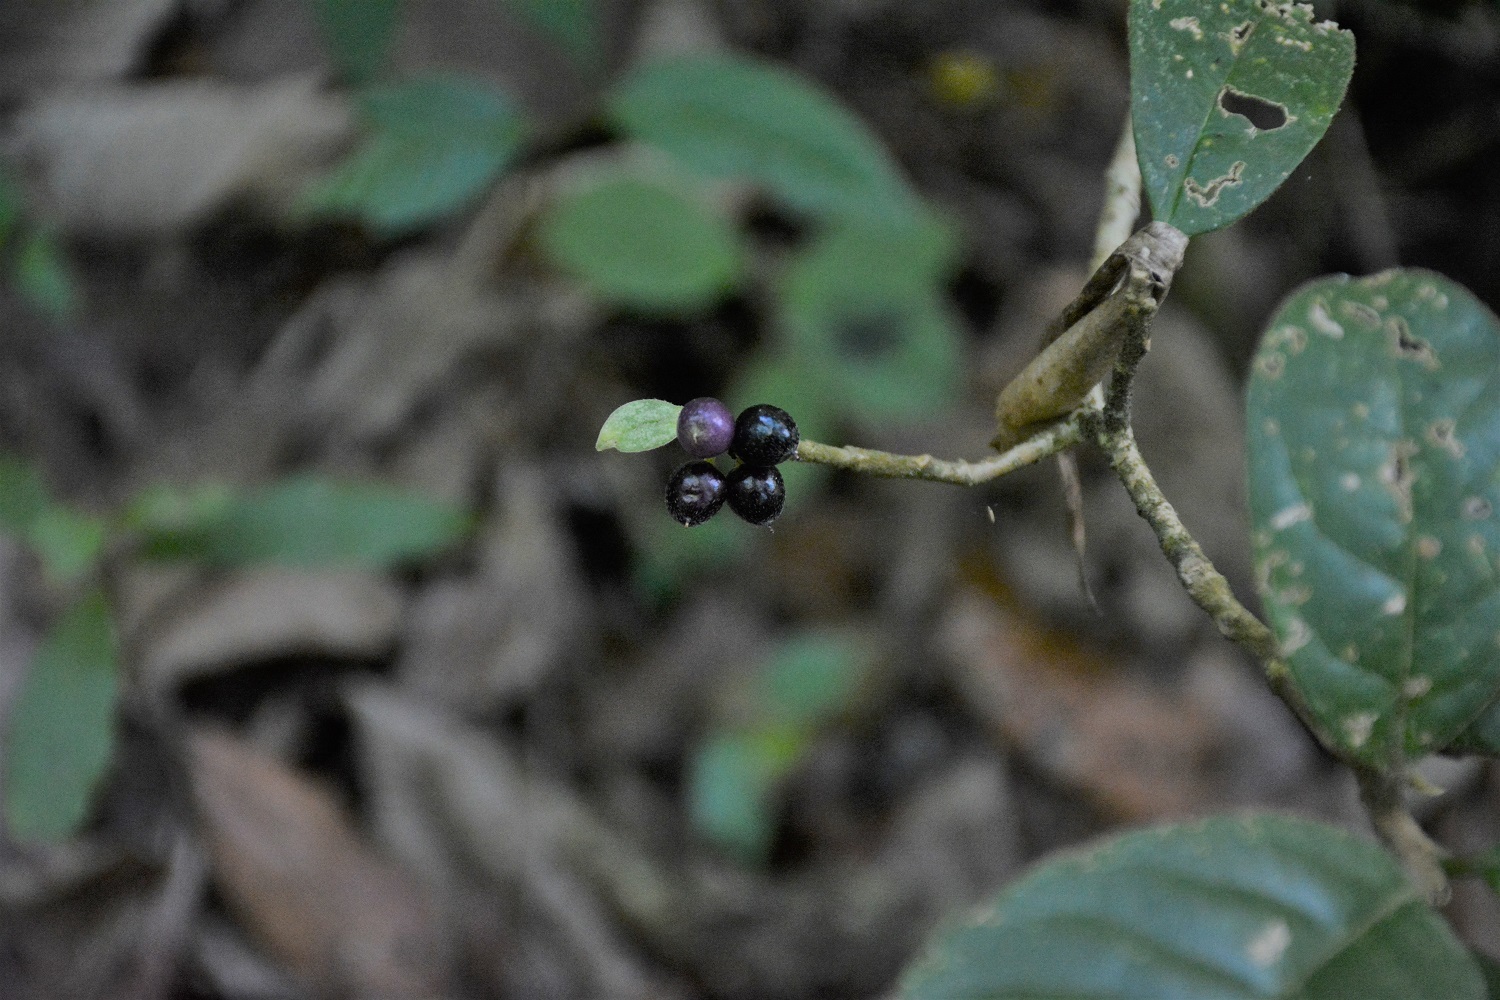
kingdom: Plantae
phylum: Tracheophyta
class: Magnoliopsida
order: Malvales
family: Thymelaeaceae
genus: Daphnopsis
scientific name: Daphnopsis selerorum
